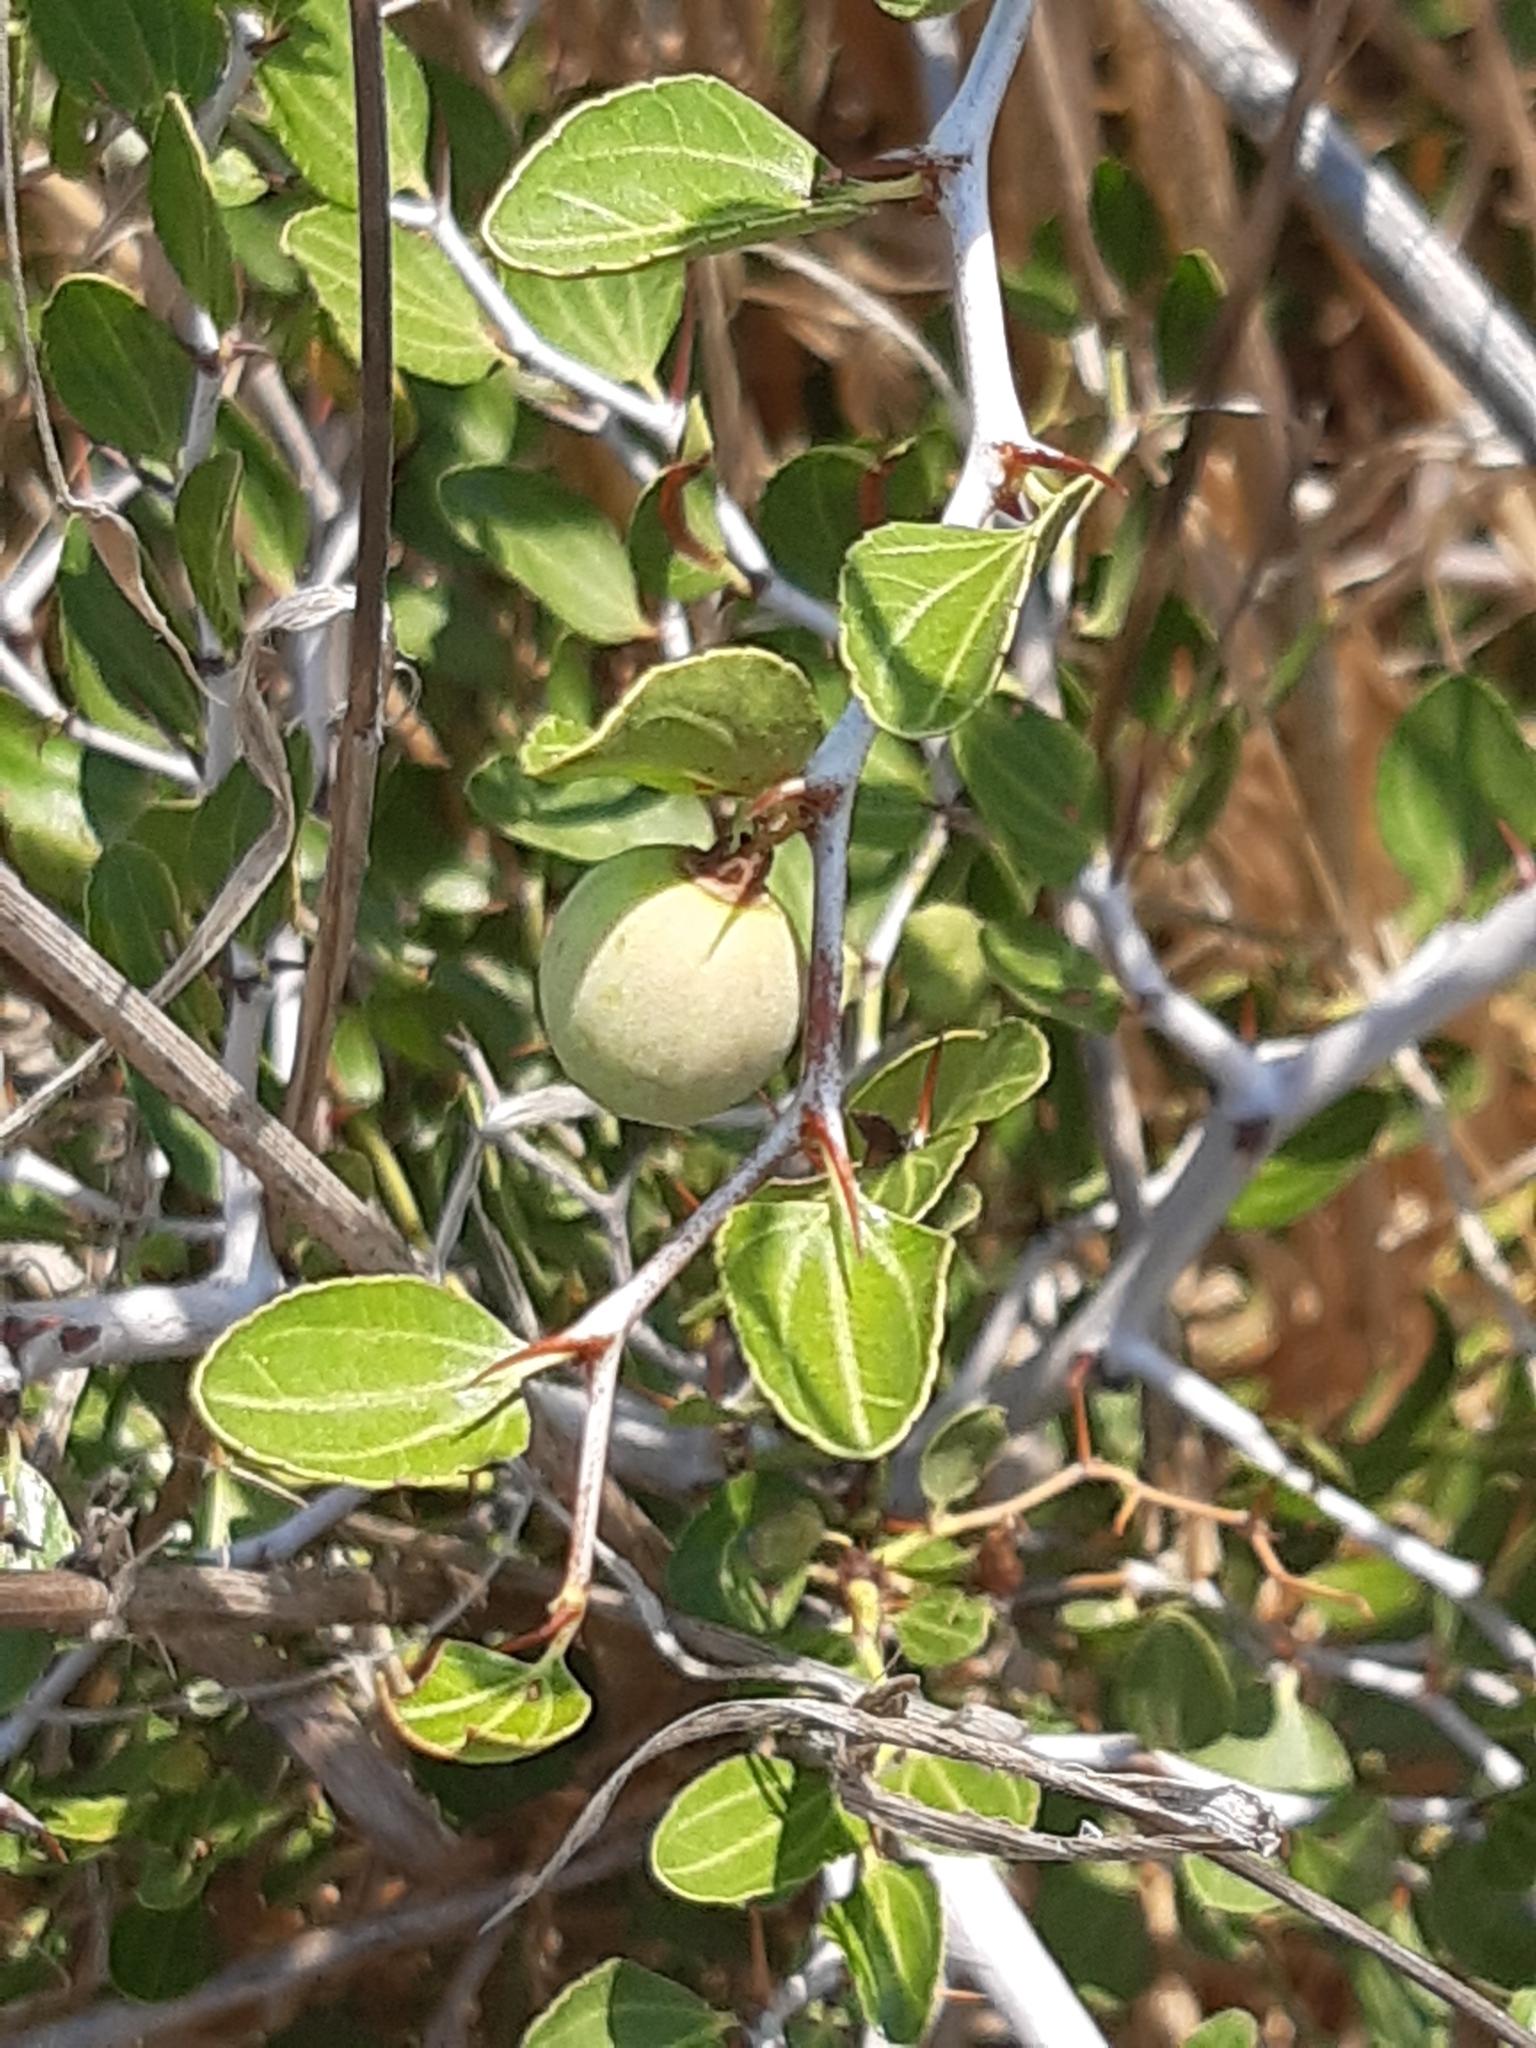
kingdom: Plantae
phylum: Tracheophyta
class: Magnoliopsida
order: Rosales
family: Rhamnaceae
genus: Ziziphus
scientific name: Ziziphus lotus
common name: Lotus
